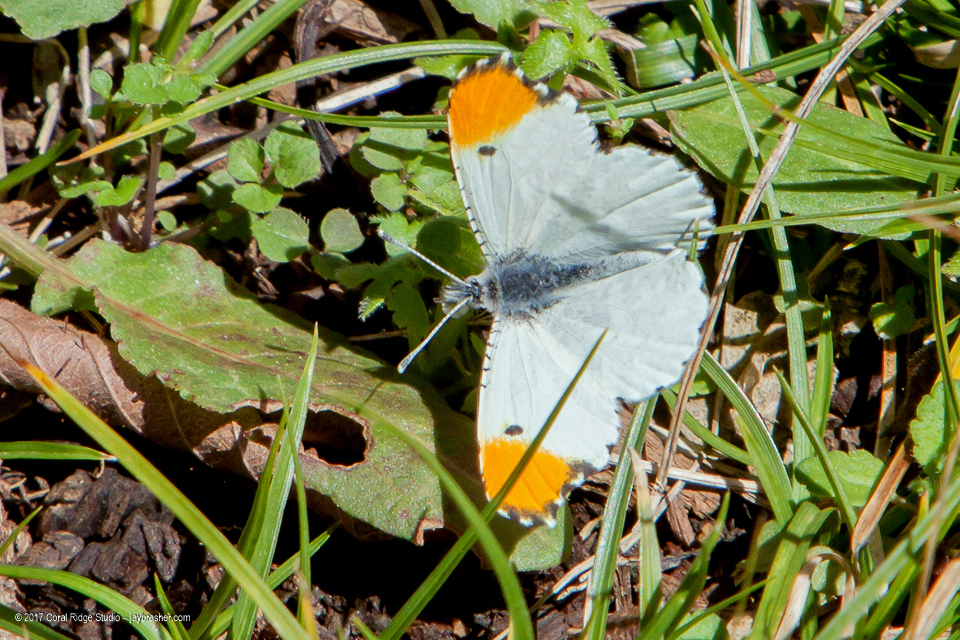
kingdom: Animalia
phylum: Arthropoda
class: Insecta
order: Lepidoptera
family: Pieridae
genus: Anthocharis
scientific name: Anthocharis midea
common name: Falcate orangetip
